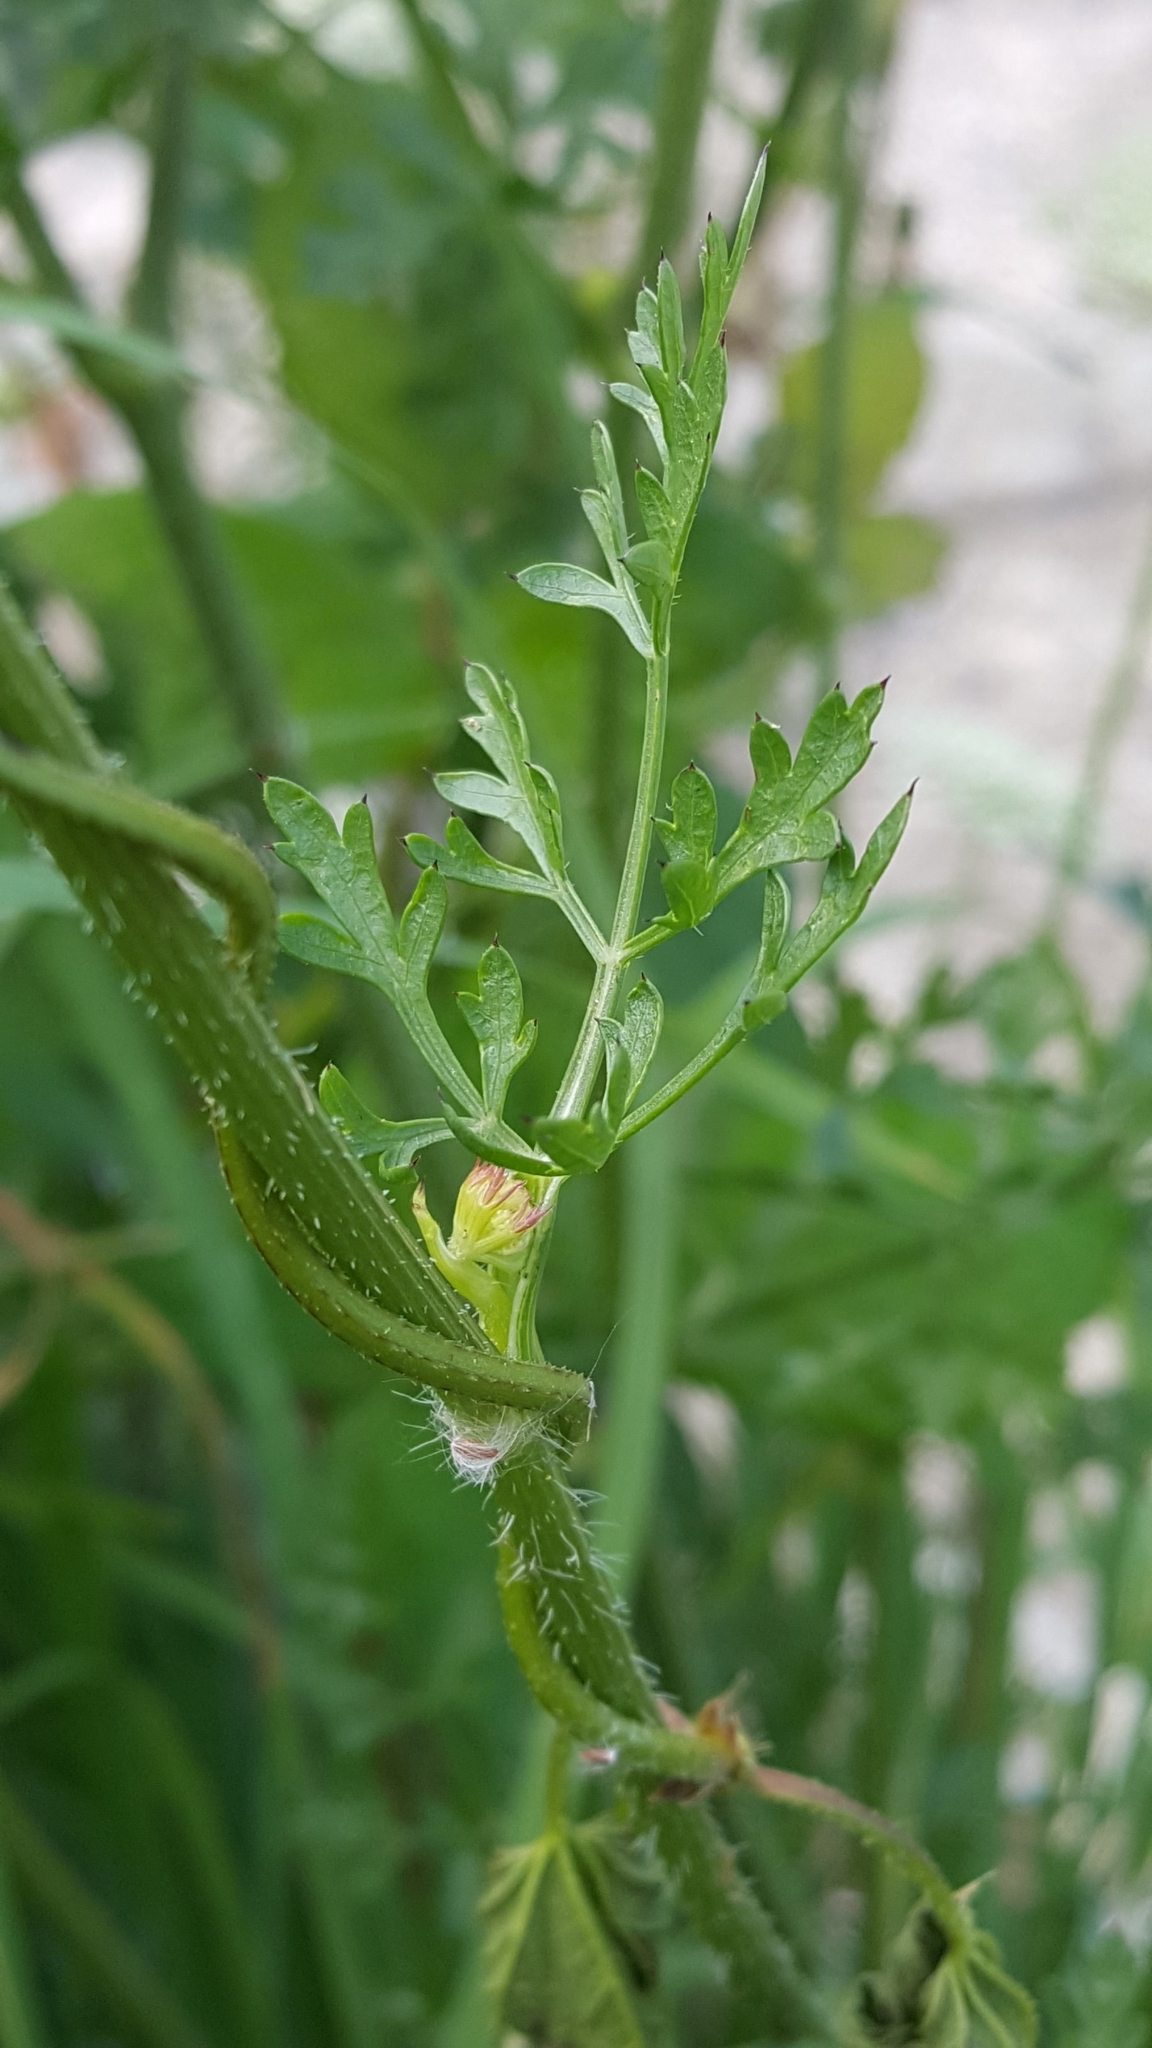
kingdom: Plantae
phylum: Tracheophyta
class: Magnoliopsida
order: Apiales
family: Apiaceae
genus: Daucus
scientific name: Daucus carota
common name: Wild carrot
